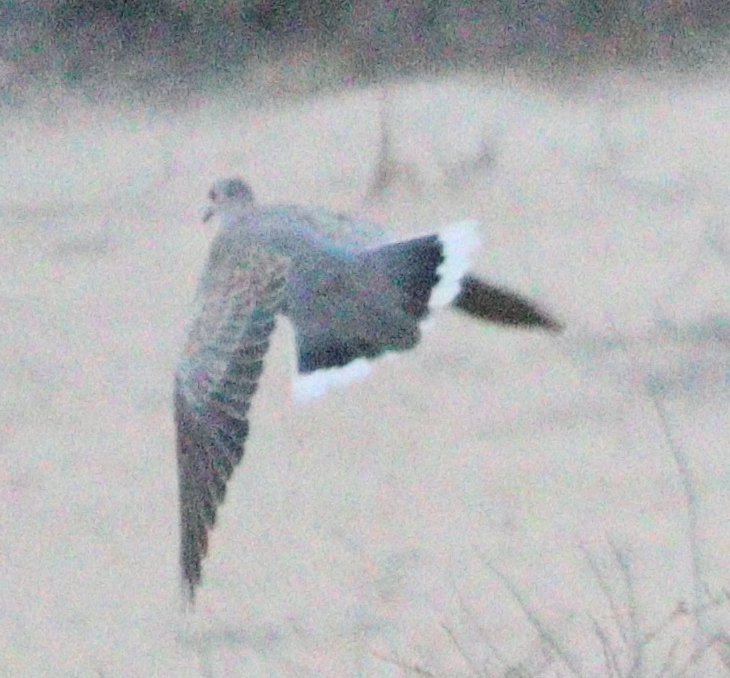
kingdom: Animalia
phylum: Chordata
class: Aves
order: Columbiformes
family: Columbidae
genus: Streptopelia
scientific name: Streptopelia turtur
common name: European turtle dove
